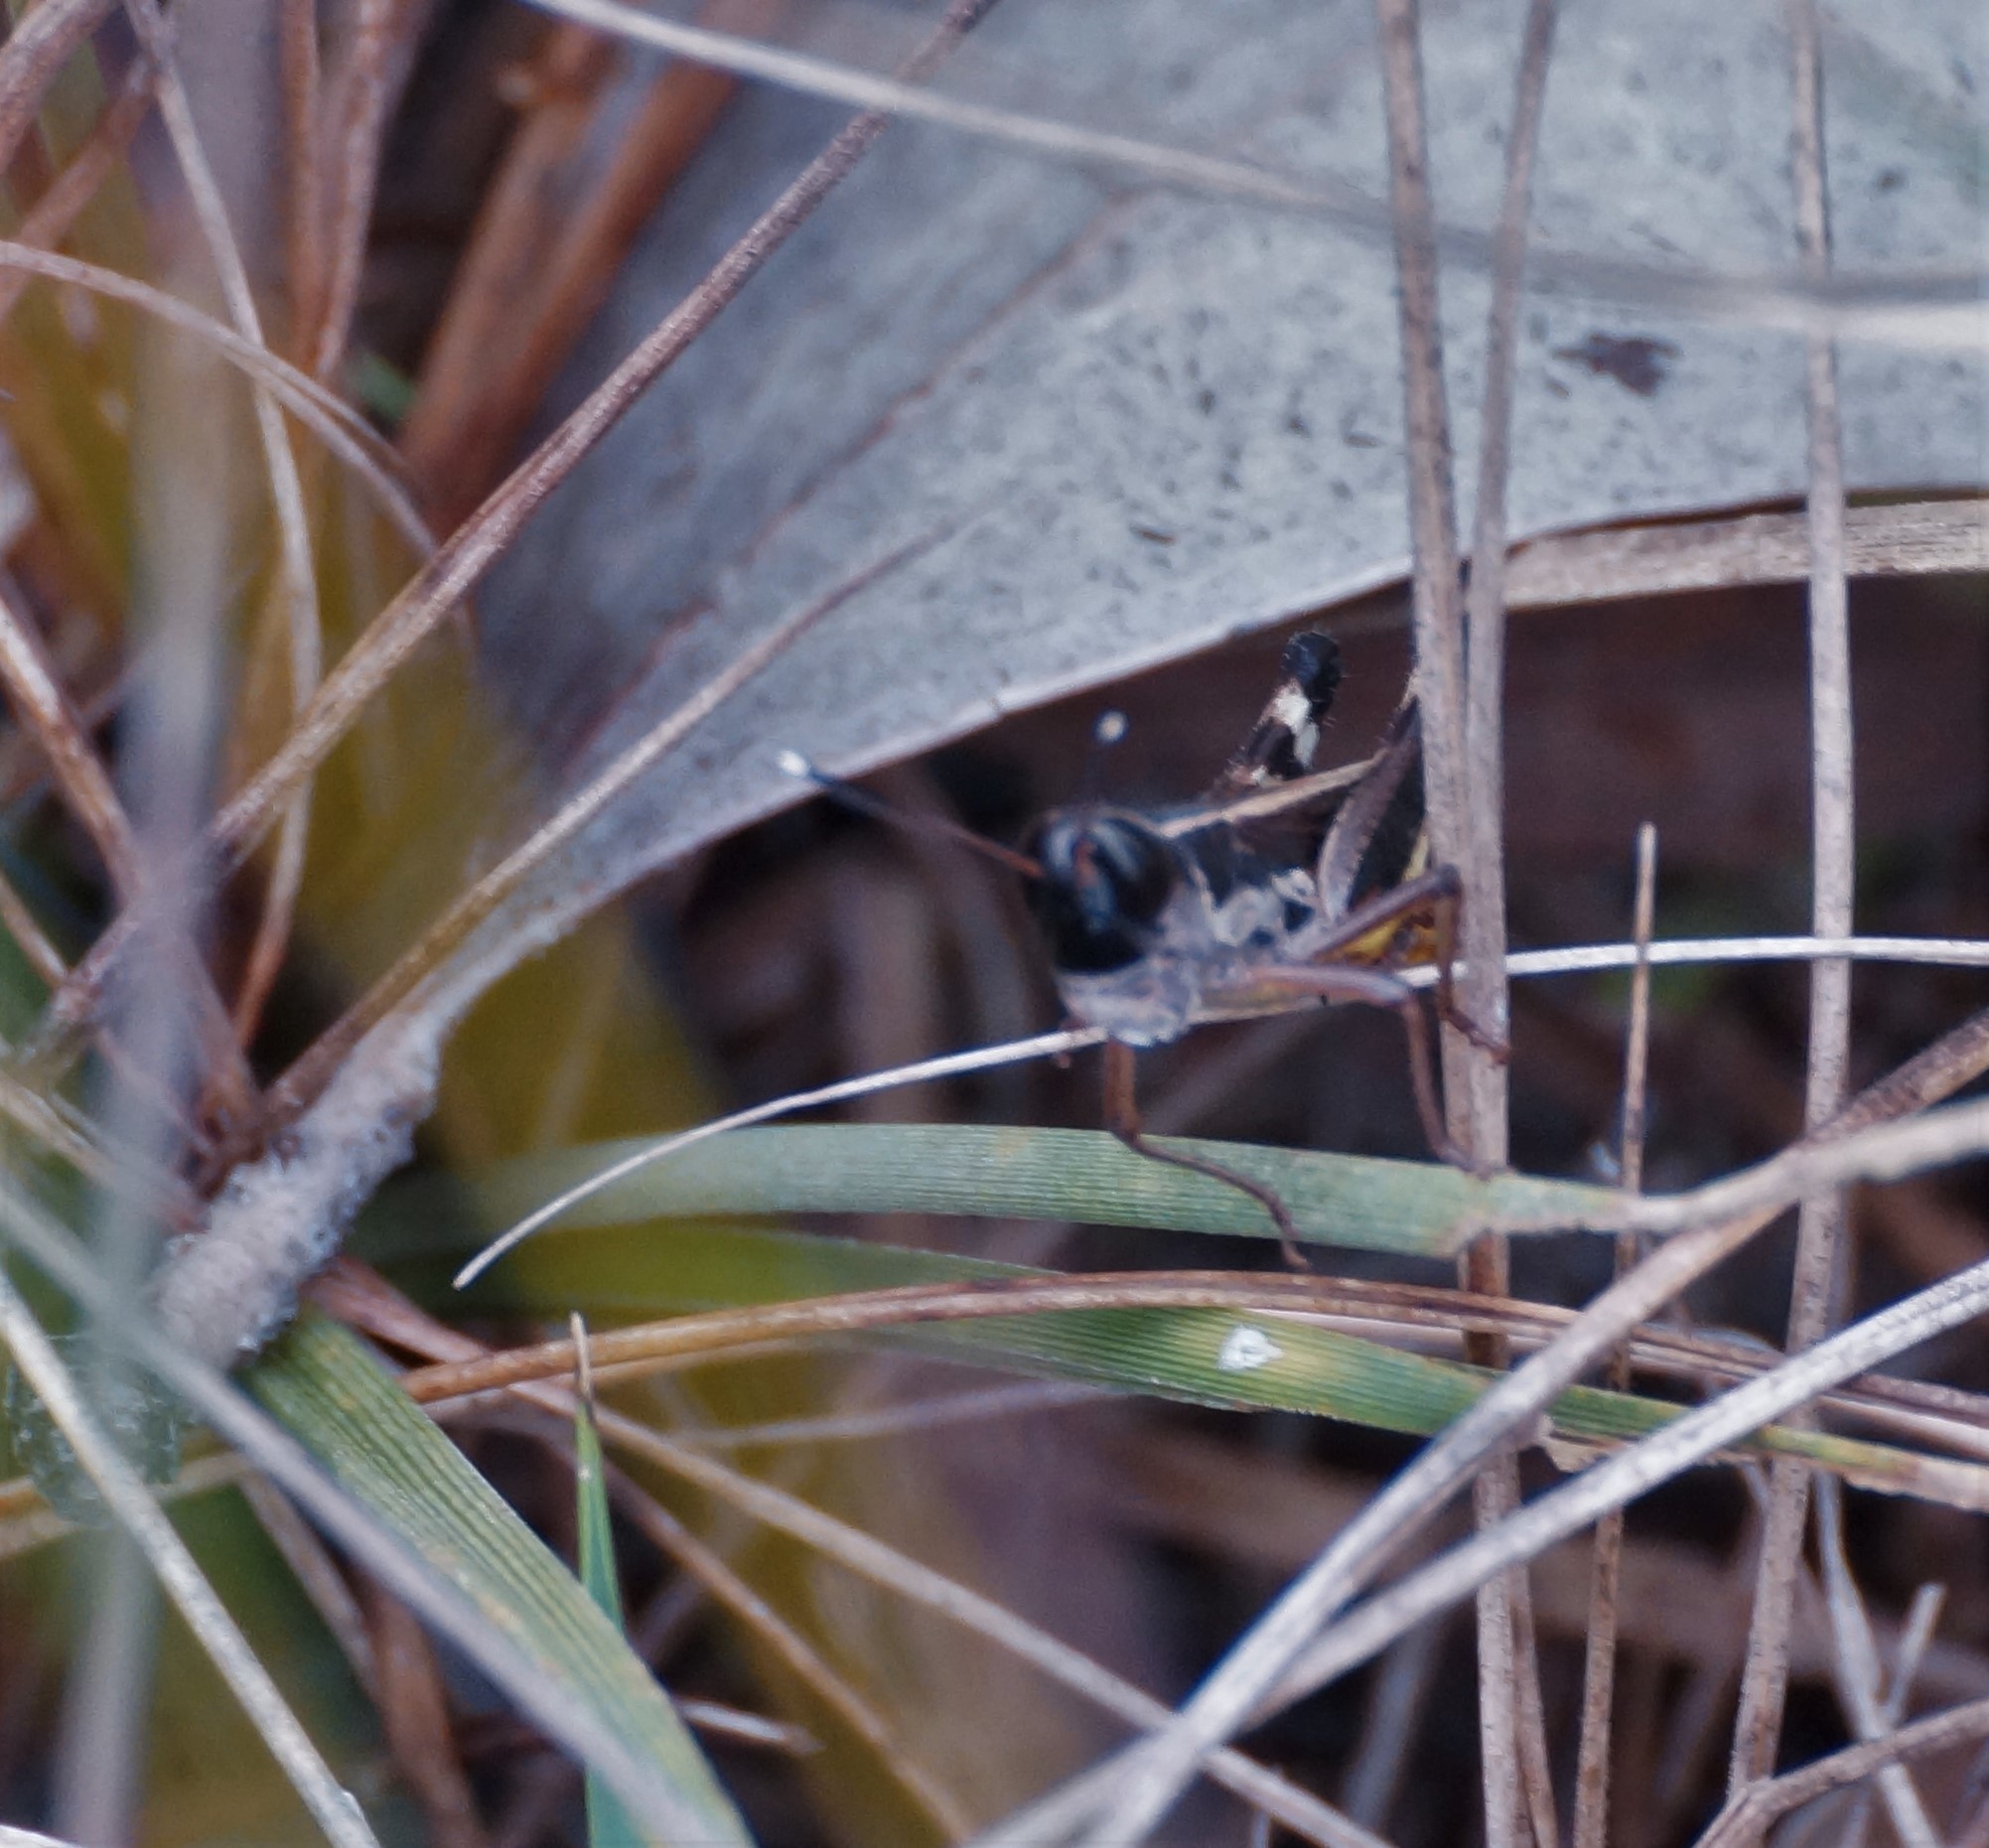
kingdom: Animalia
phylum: Arthropoda
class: Insecta
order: Orthoptera
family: Acrididae
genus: Macrotona
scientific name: Macrotona australis
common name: Common macrotona
